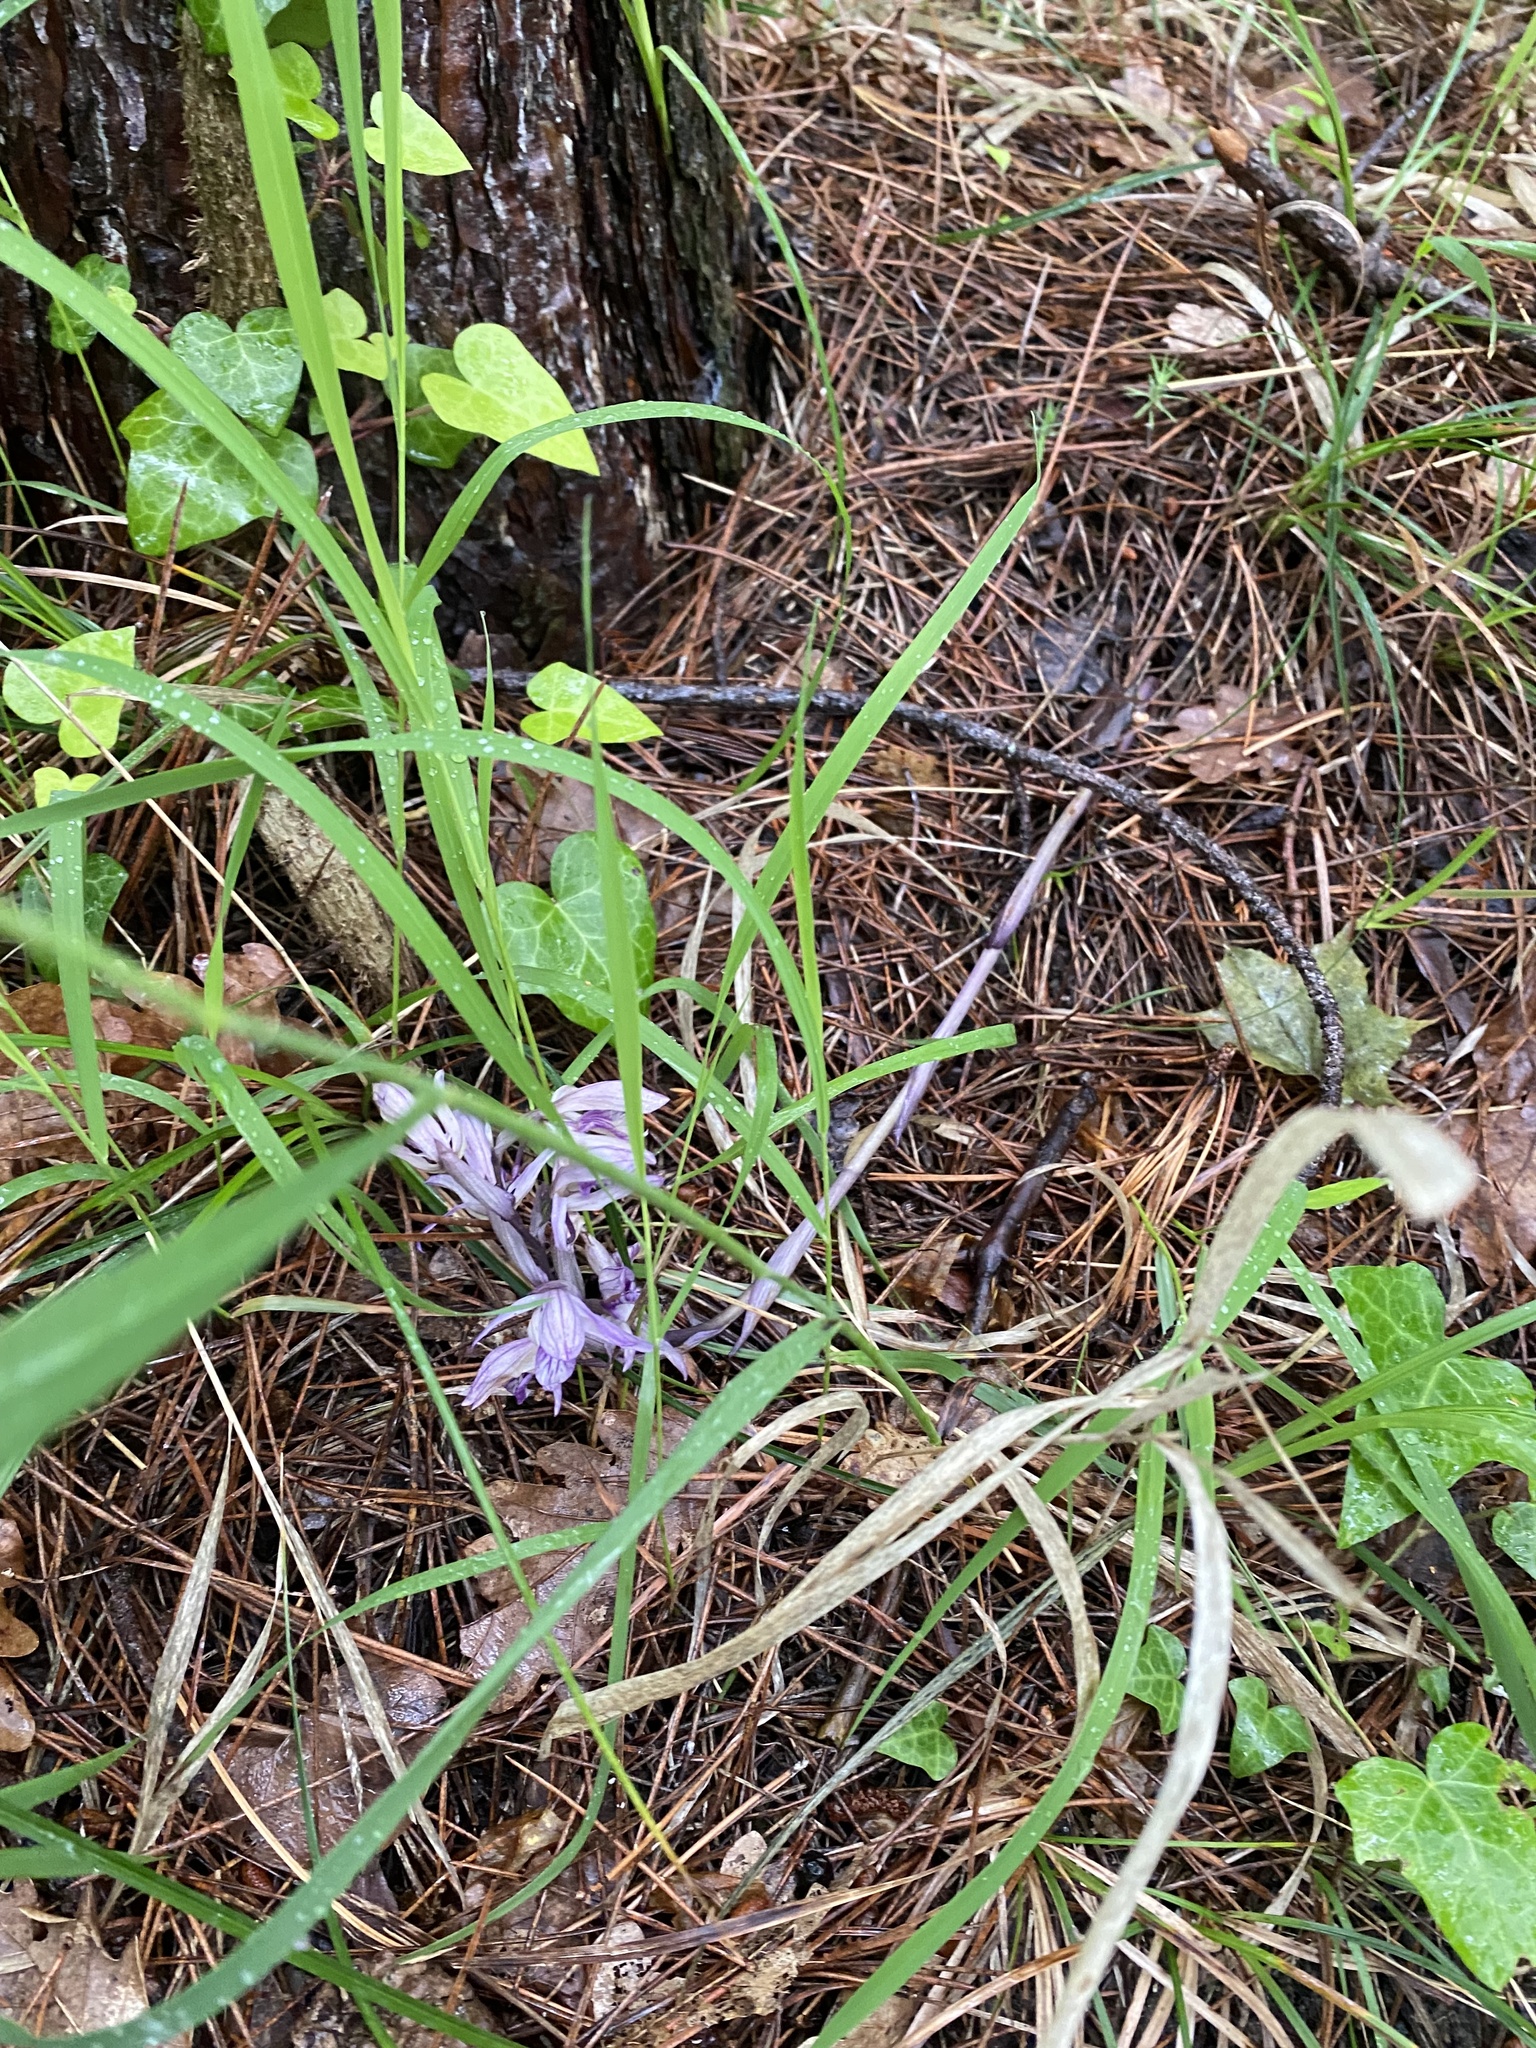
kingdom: Plantae
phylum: Tracheophyta
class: Liliopsida
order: Asparagales
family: Orchidaceae
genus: Limodorum
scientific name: Limodorum abortivum
